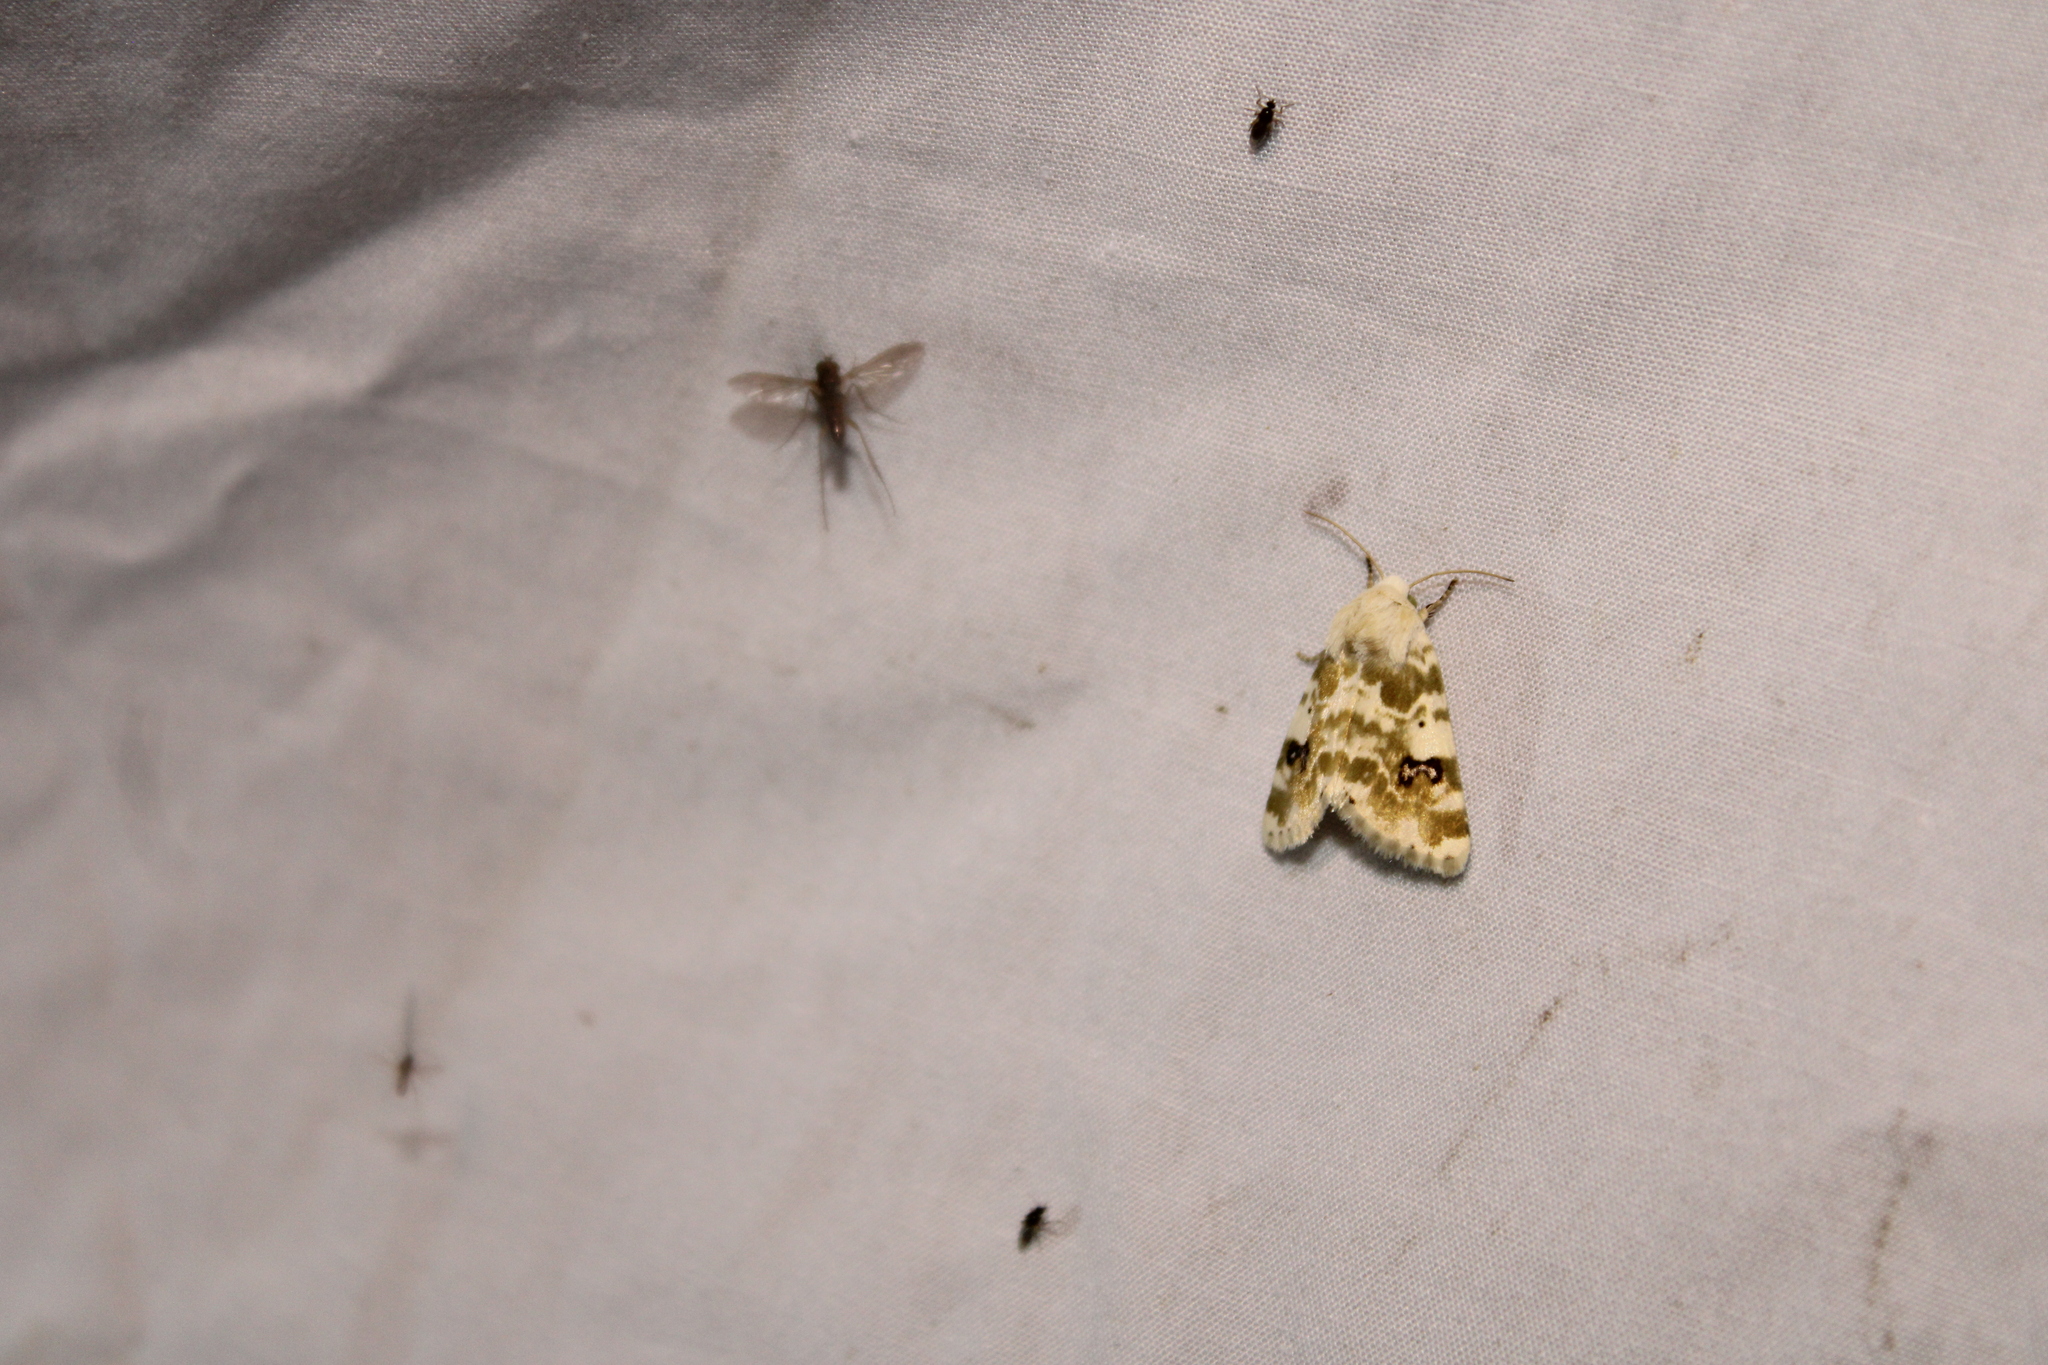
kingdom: Animalia
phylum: Arthropoda
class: Insecta
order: Lepidoptera
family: Noctuidae
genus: Schinia
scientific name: Schinia nundina
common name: Goldenrod flower moth
